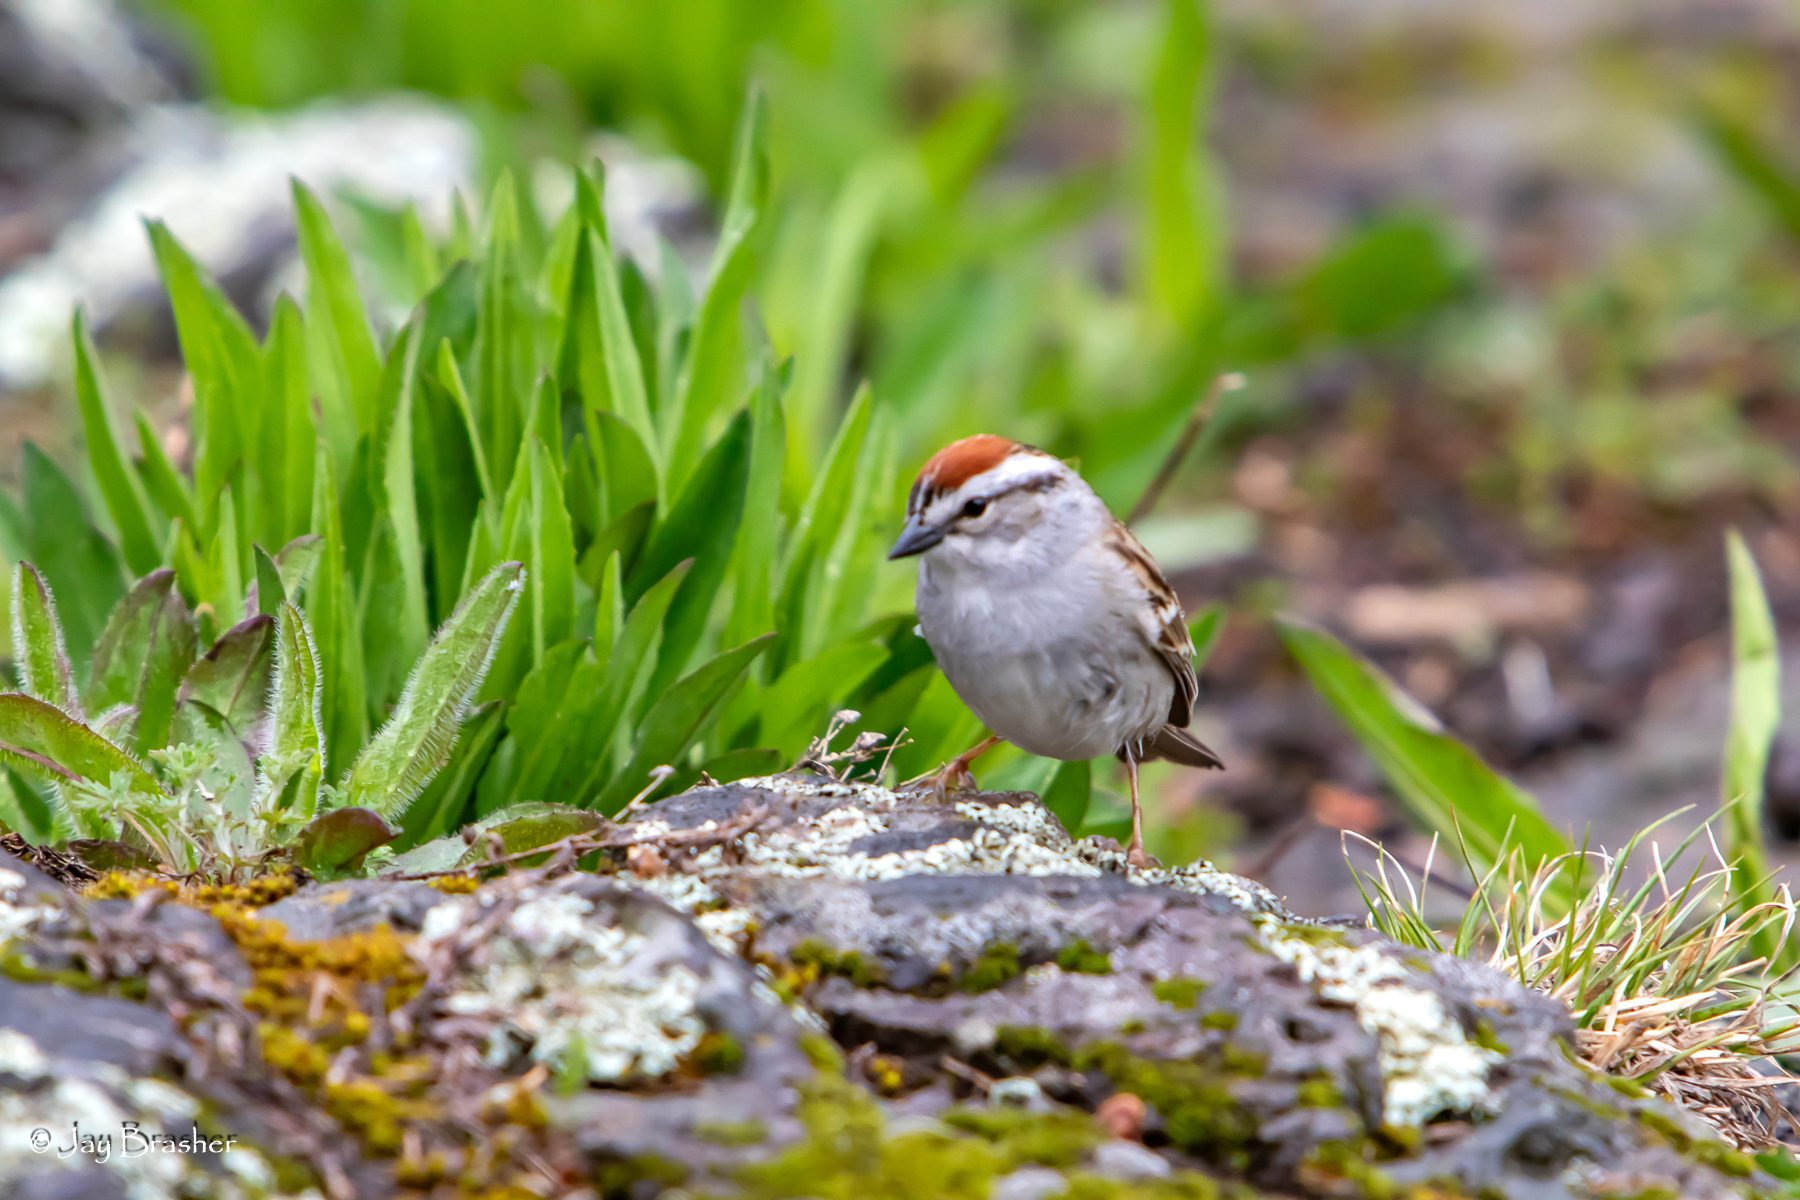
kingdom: Animalia
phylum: Chordata
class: Aves
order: Passeriformes
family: Passerellidae
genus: Spizella
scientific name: Spizella passerina
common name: Chipping sparrow
